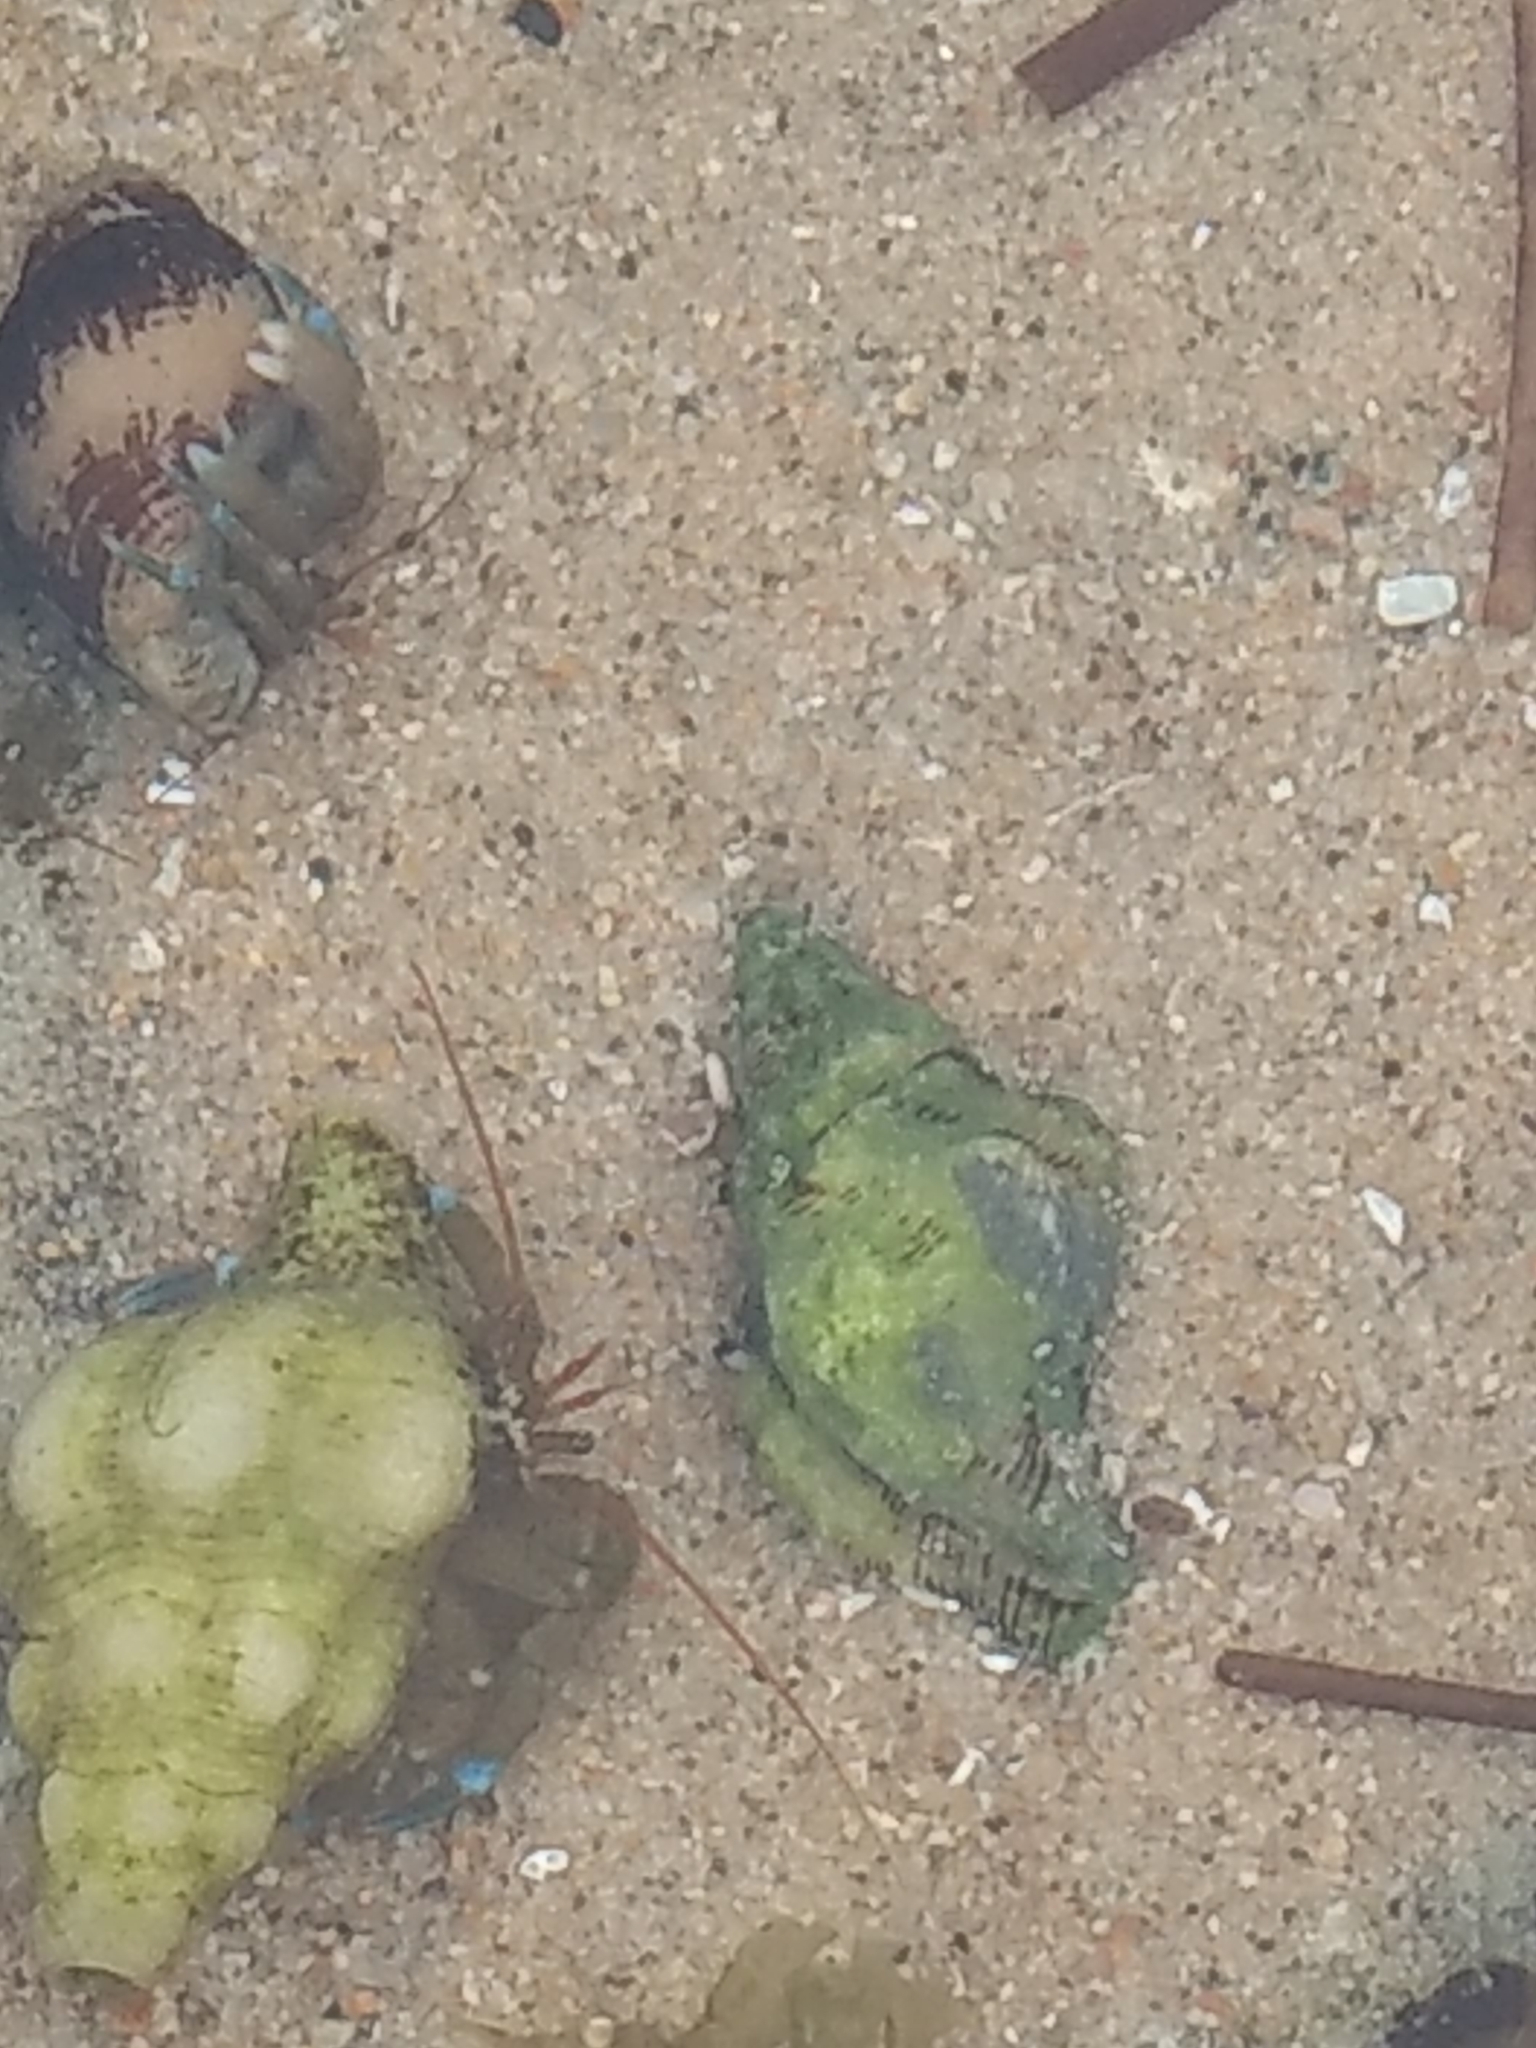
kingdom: Animalia
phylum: Arthropoda
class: Malacostraca
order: Decapoda
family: Paguridae
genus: Pagurus
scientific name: Pagurus samuelis
